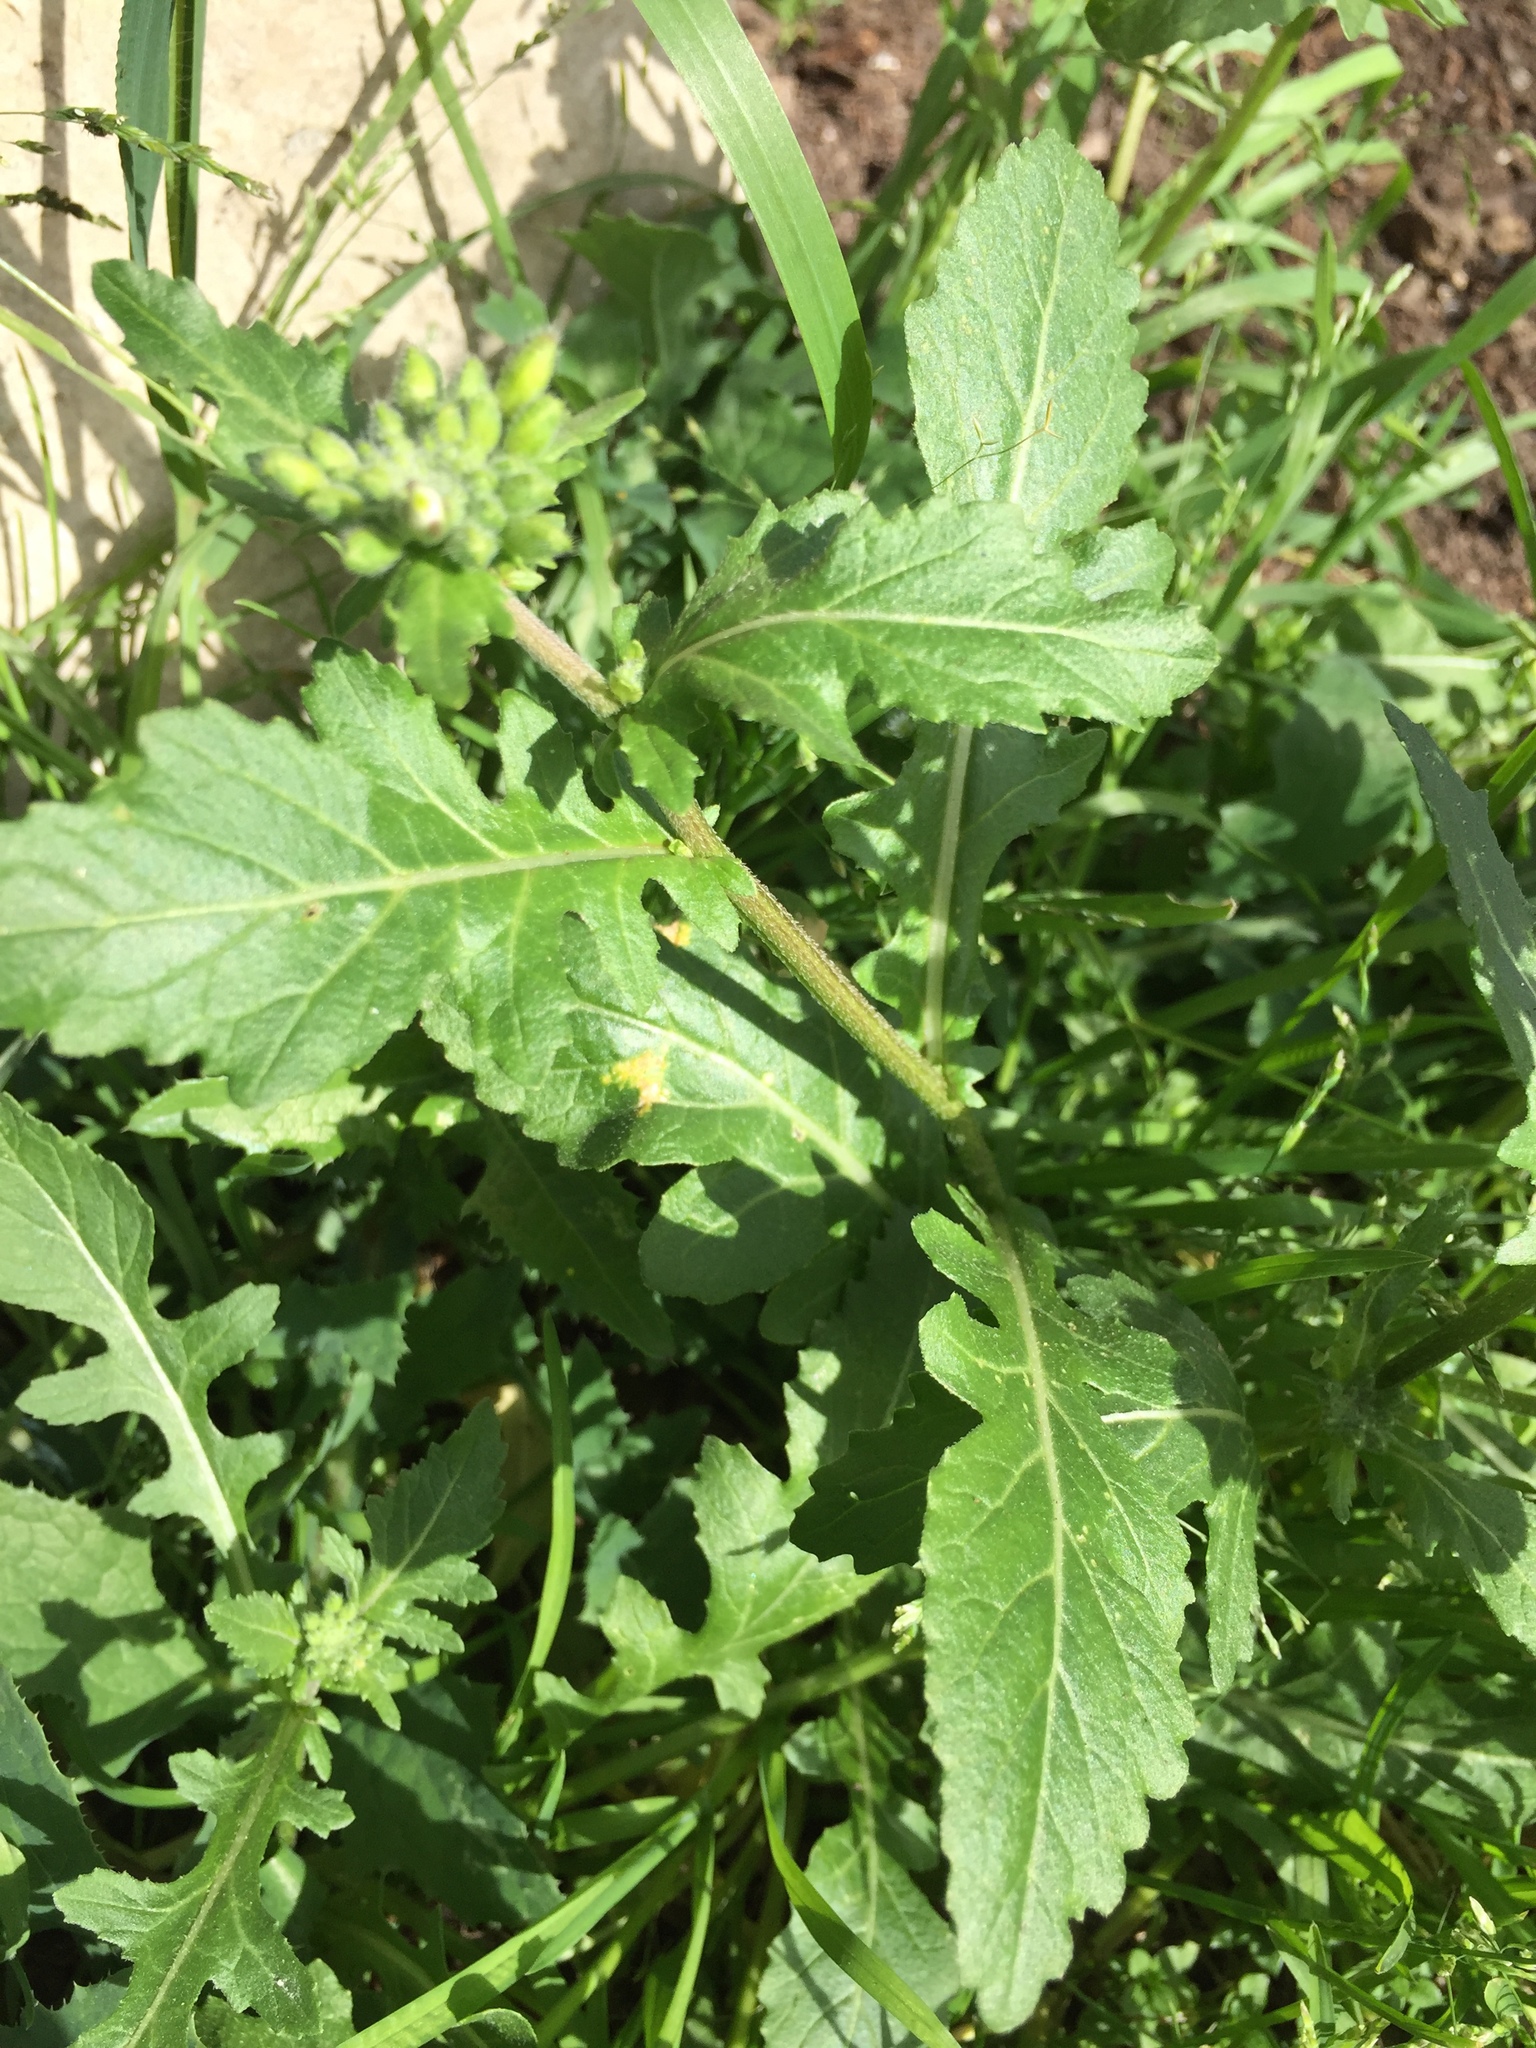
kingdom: Plantae
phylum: Tracheophyta
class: Magnoliopsida
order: Brassicales
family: Brassicaceae
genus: Diplotaxis
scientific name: Diplotaxis erucoides
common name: White rocket
